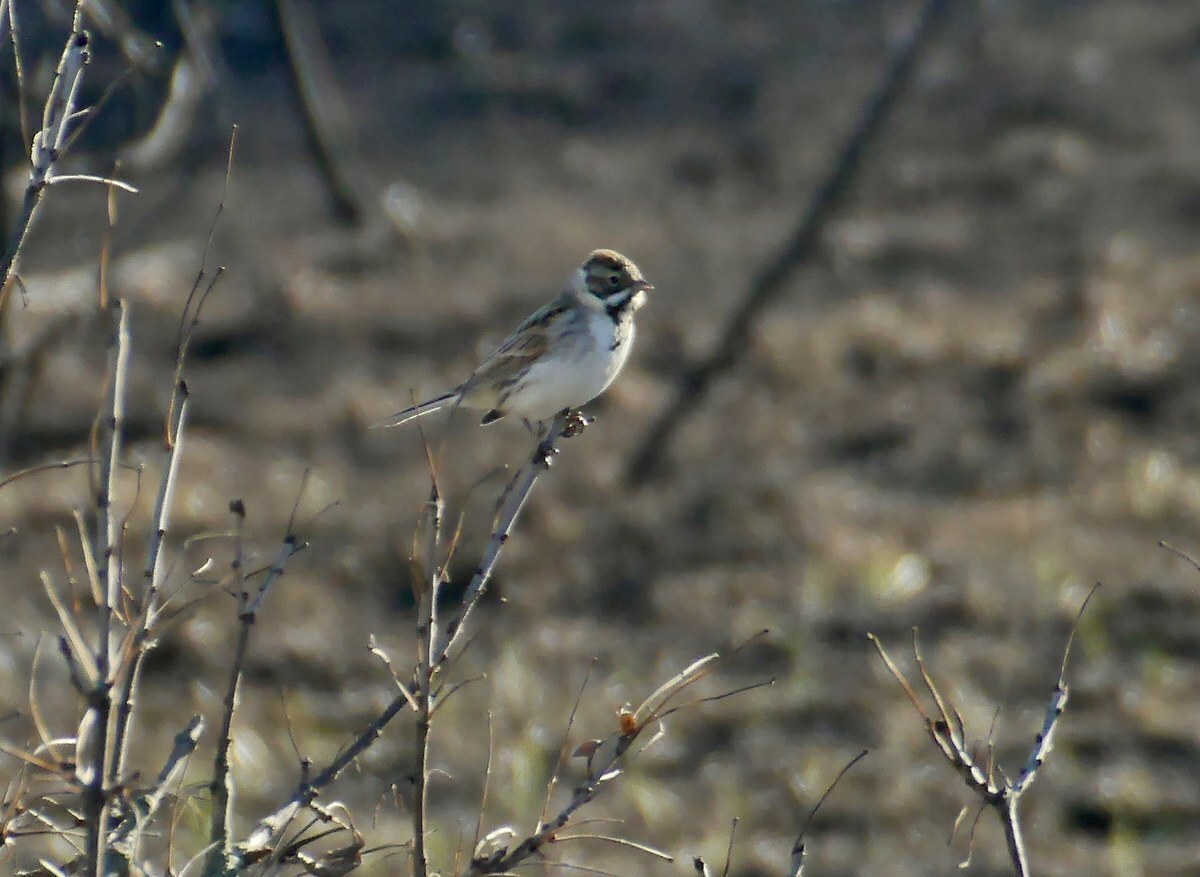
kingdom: Animalia
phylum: Chordata
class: Aves
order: Passeriformes
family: Emberizidae
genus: Emberiza
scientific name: Emberiza schoeniclus
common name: Reed bunting
